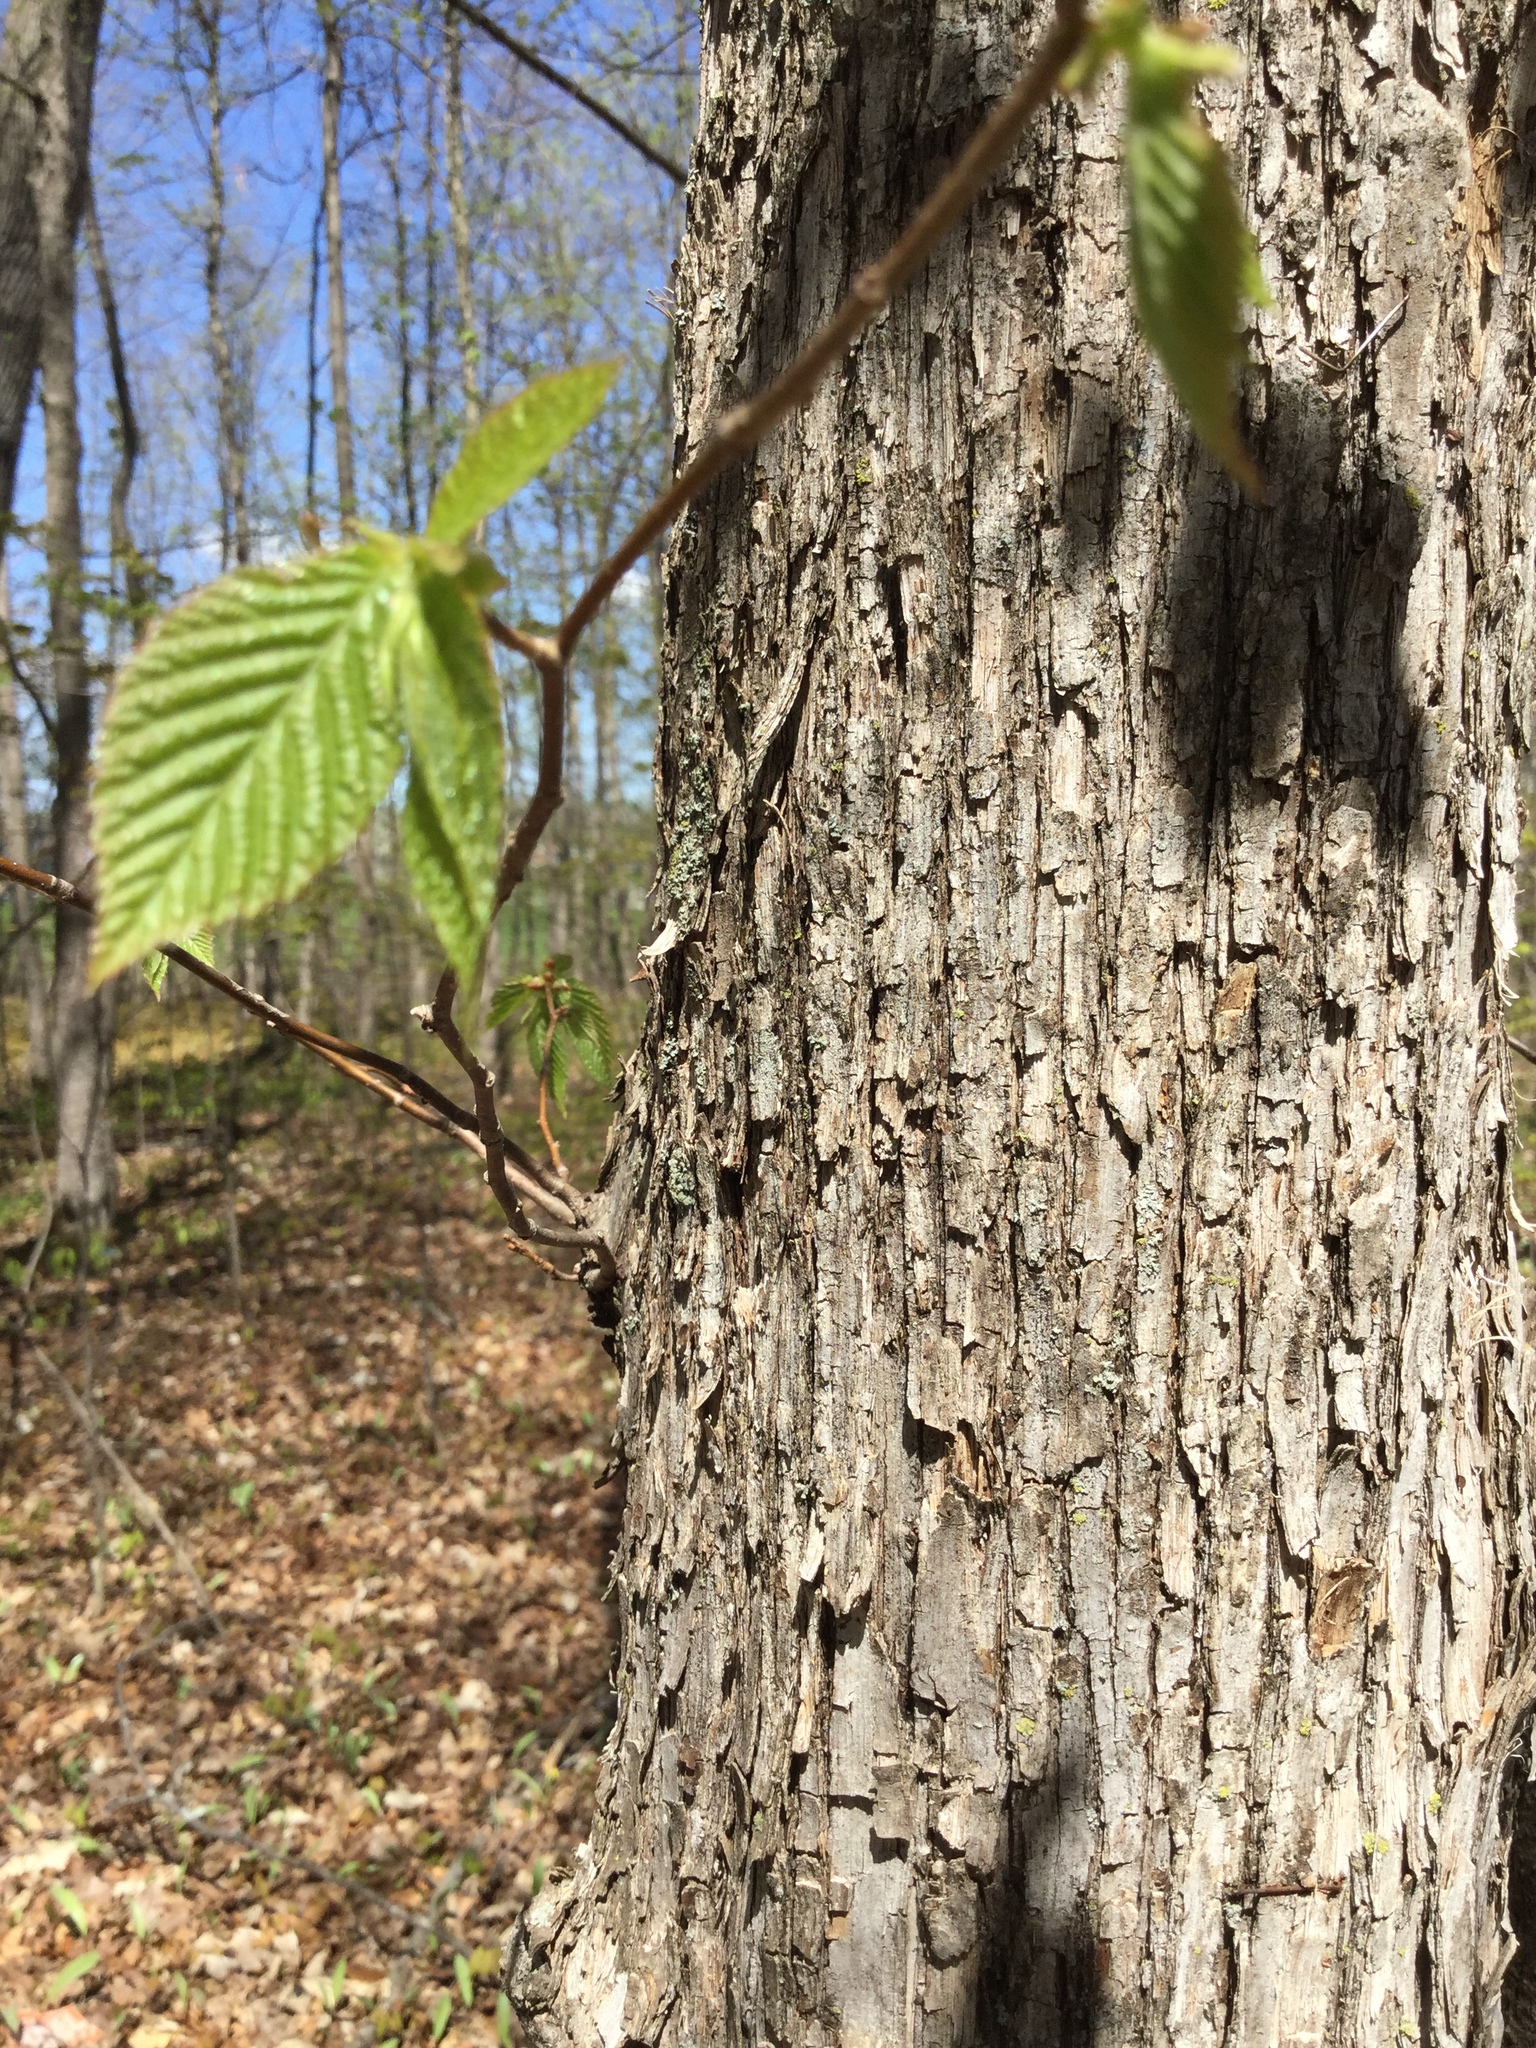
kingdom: Plantae
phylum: Tracheophyta
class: Magnoliopsida
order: Fagales
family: Betulaceae
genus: Ostrya
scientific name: Ostrya virginiana
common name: Ironwood
